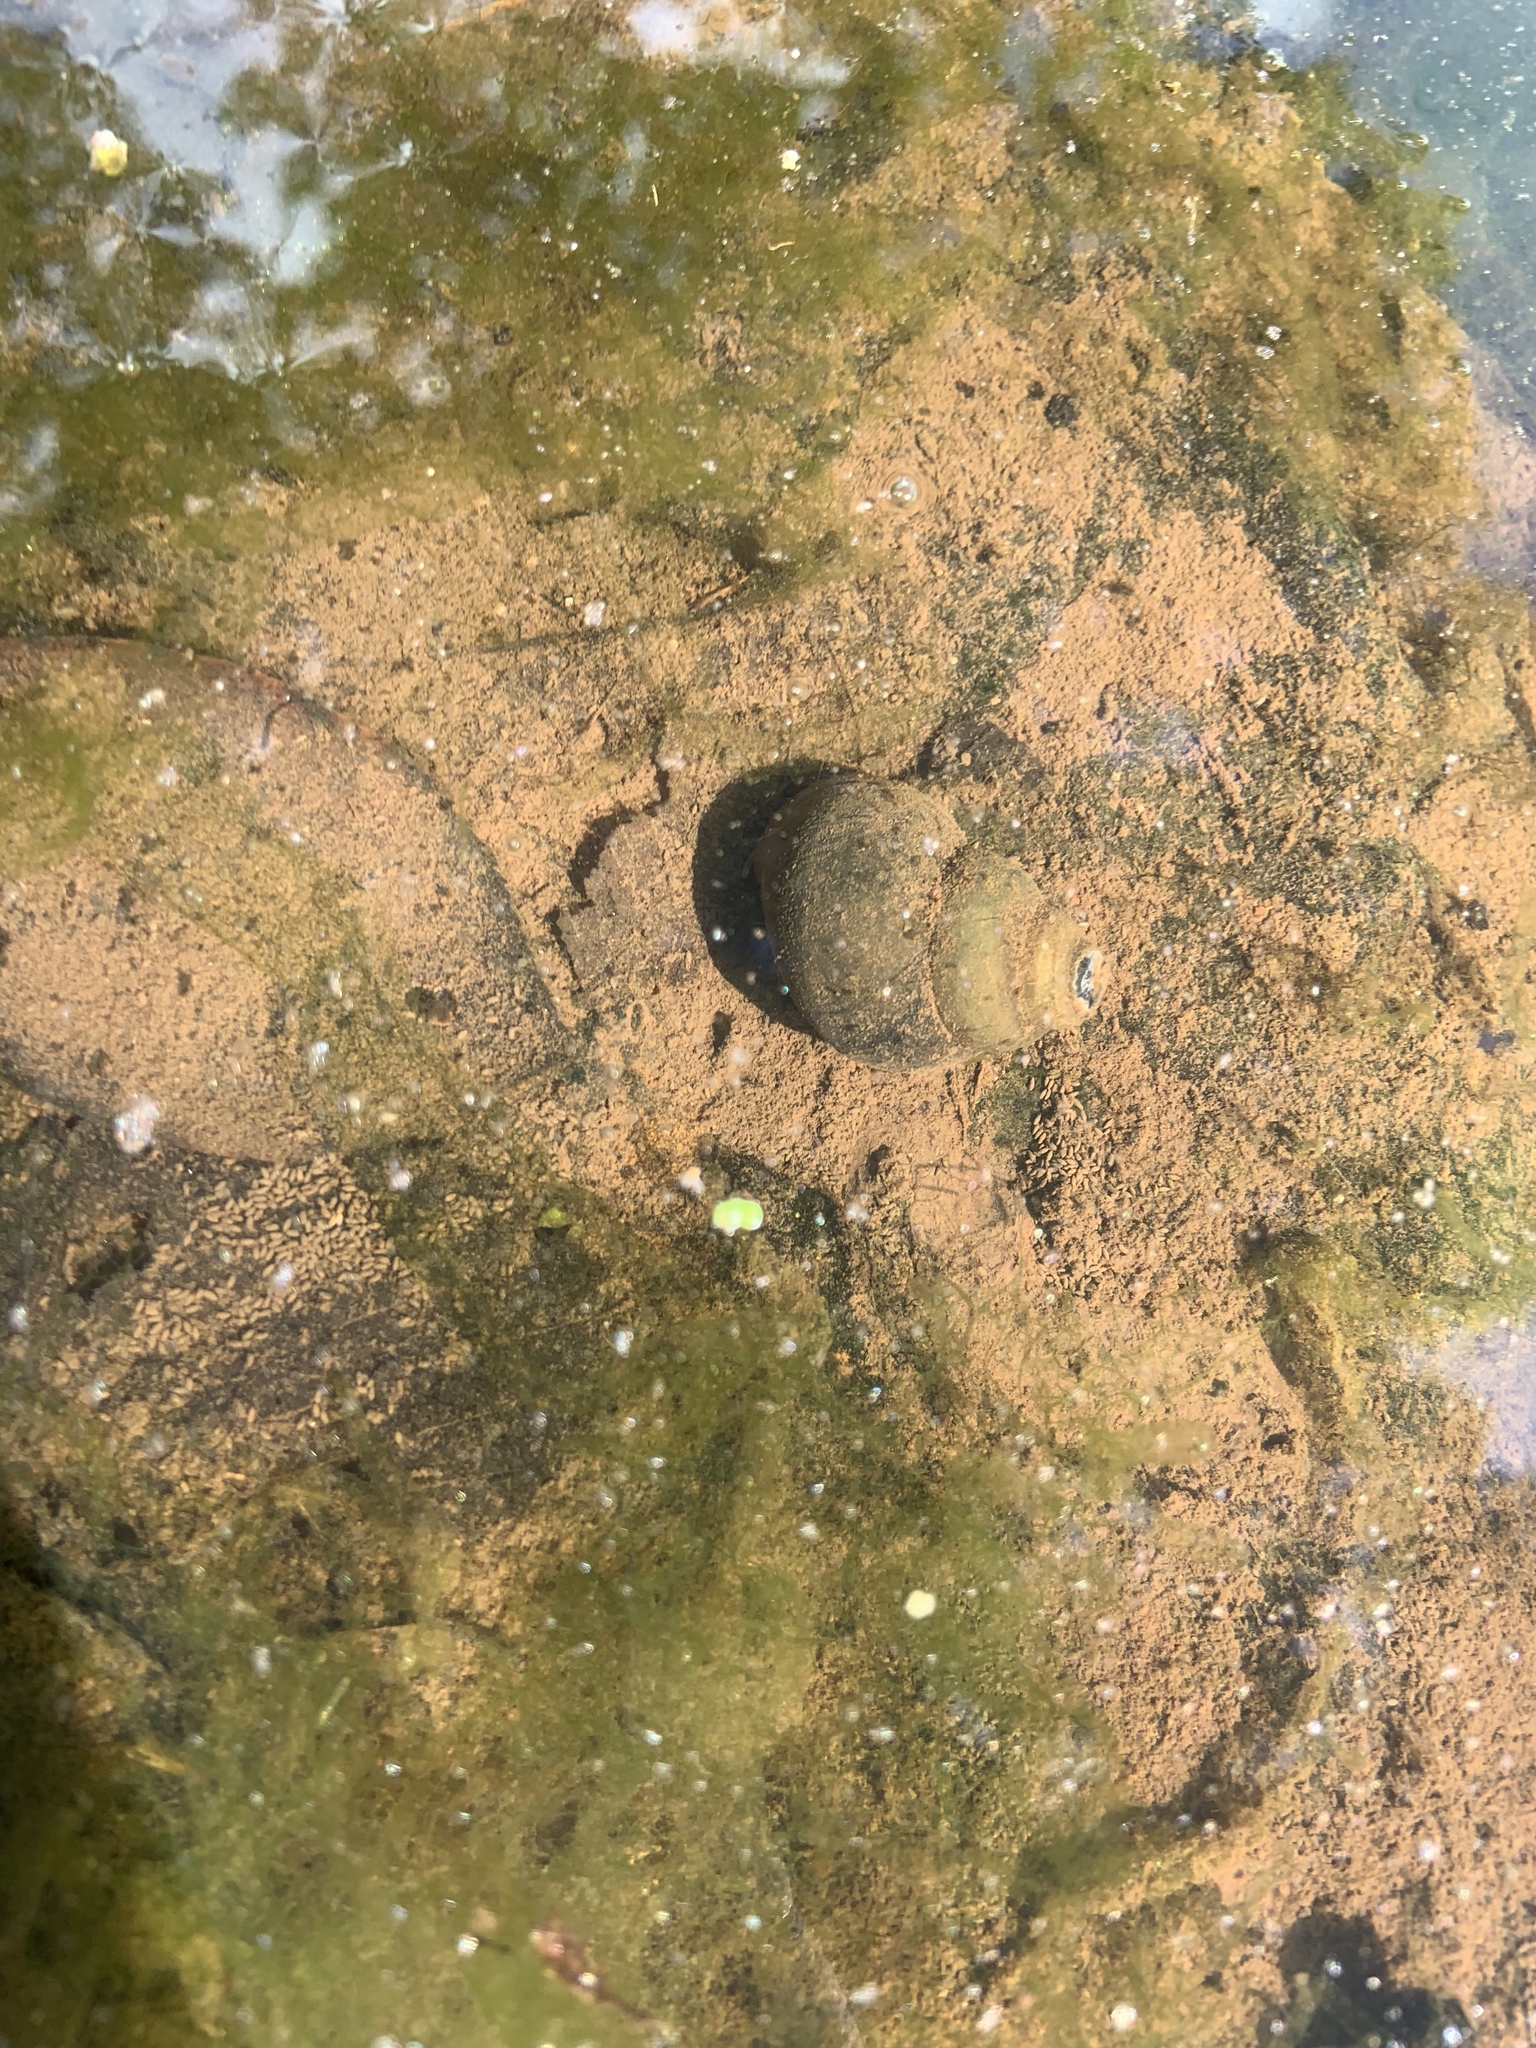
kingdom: Animalia
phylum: Mollusca
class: Gastropoda
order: Architaenioglossa
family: Viviparidae
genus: Cipangopaludina
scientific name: Cipangopaludina chinensis
